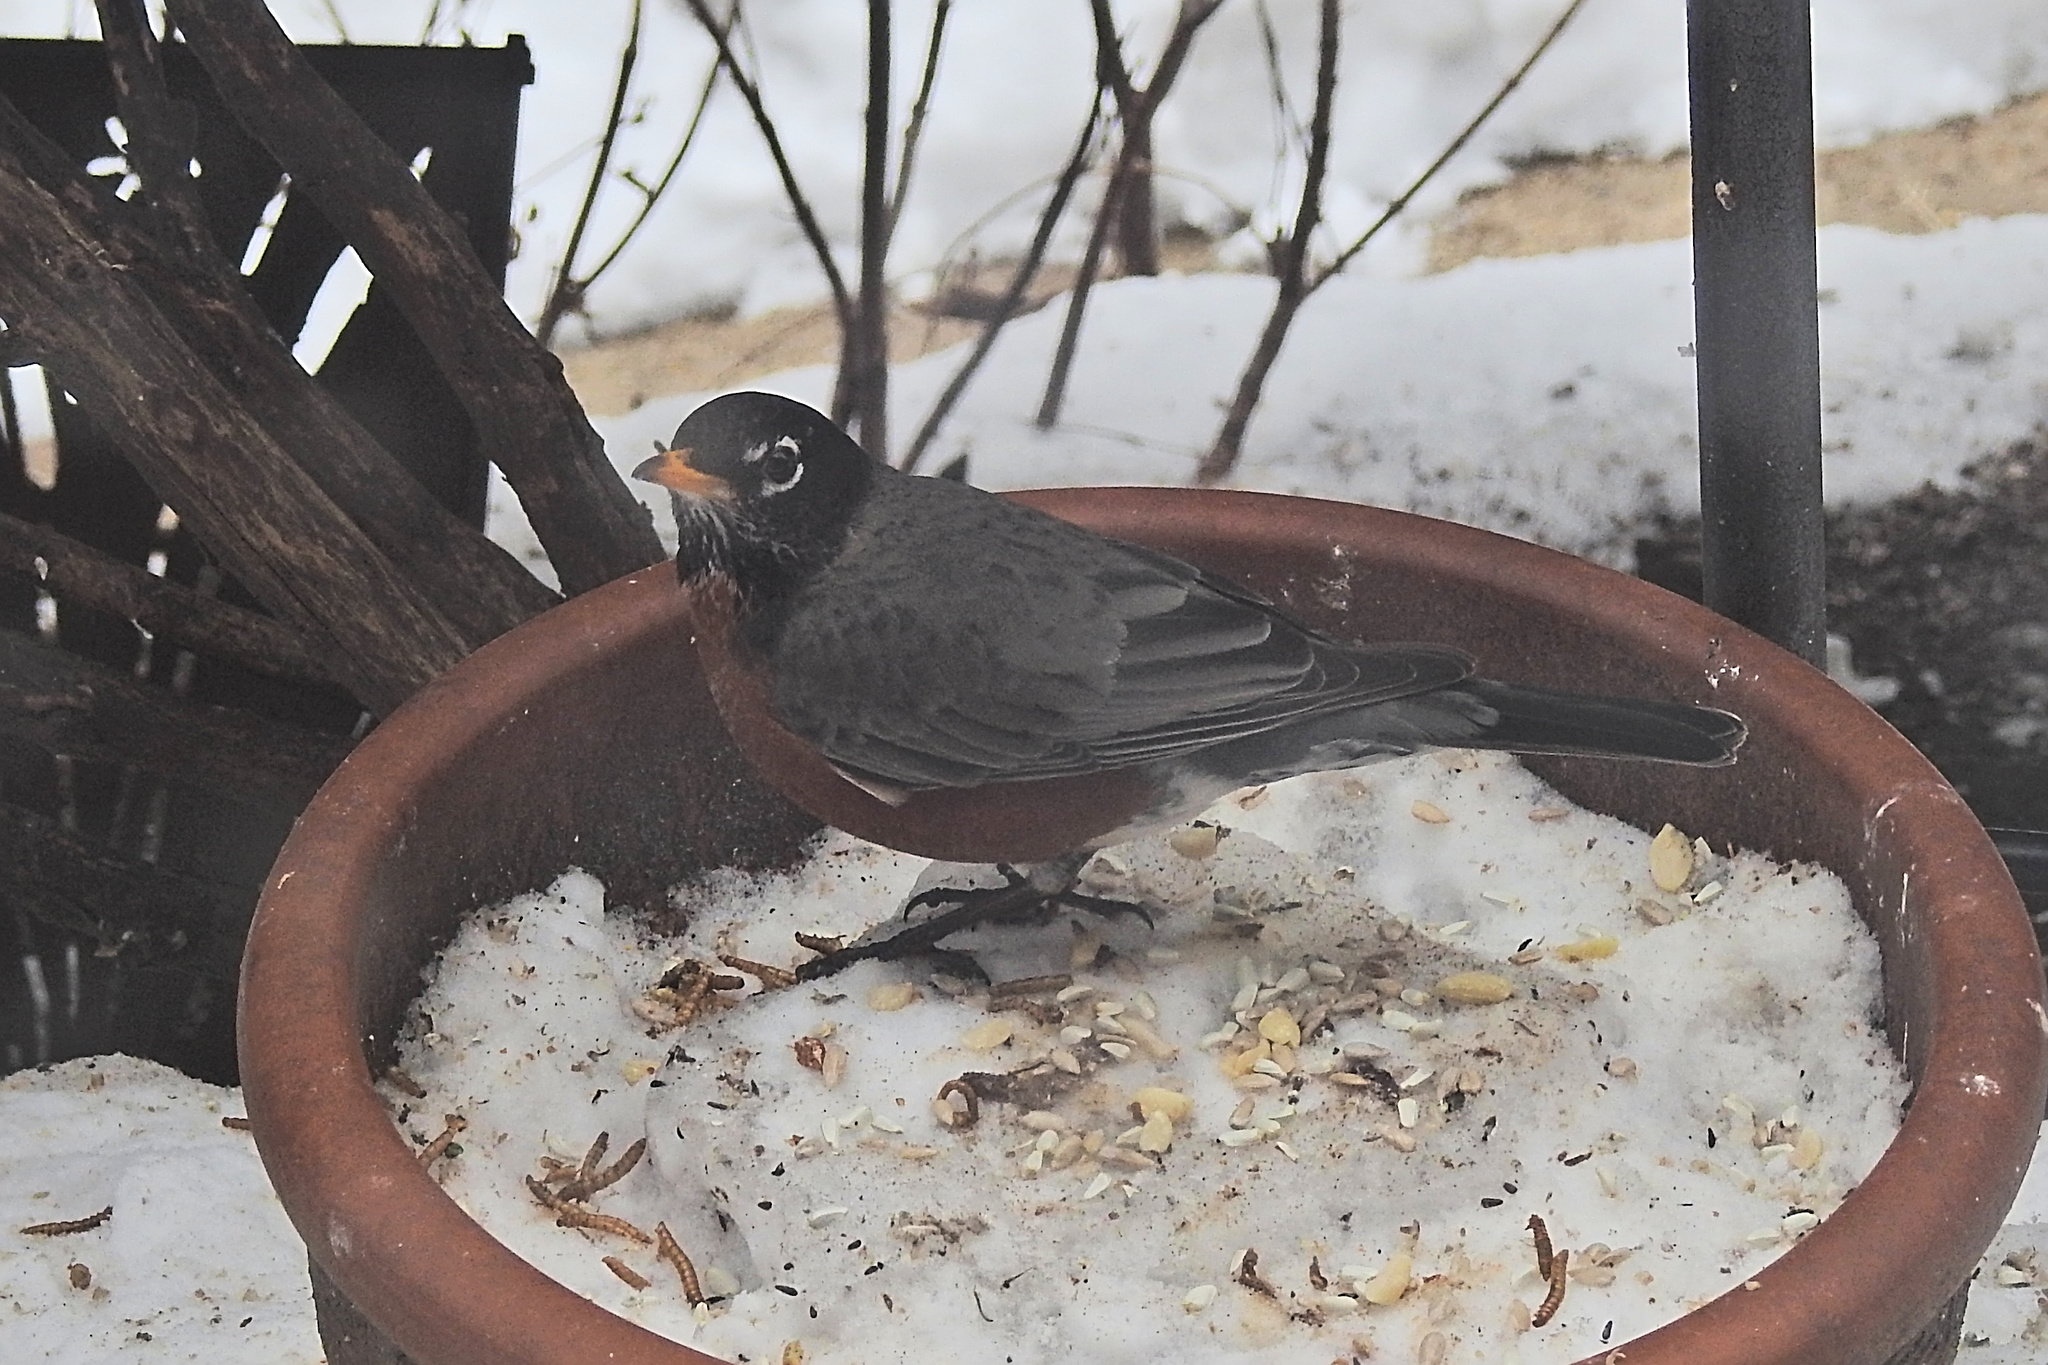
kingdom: Animalia
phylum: Chordata
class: Aves
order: Passeriformes
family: Turdidae
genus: Turdus
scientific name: Turdus migratorius
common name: American robin
